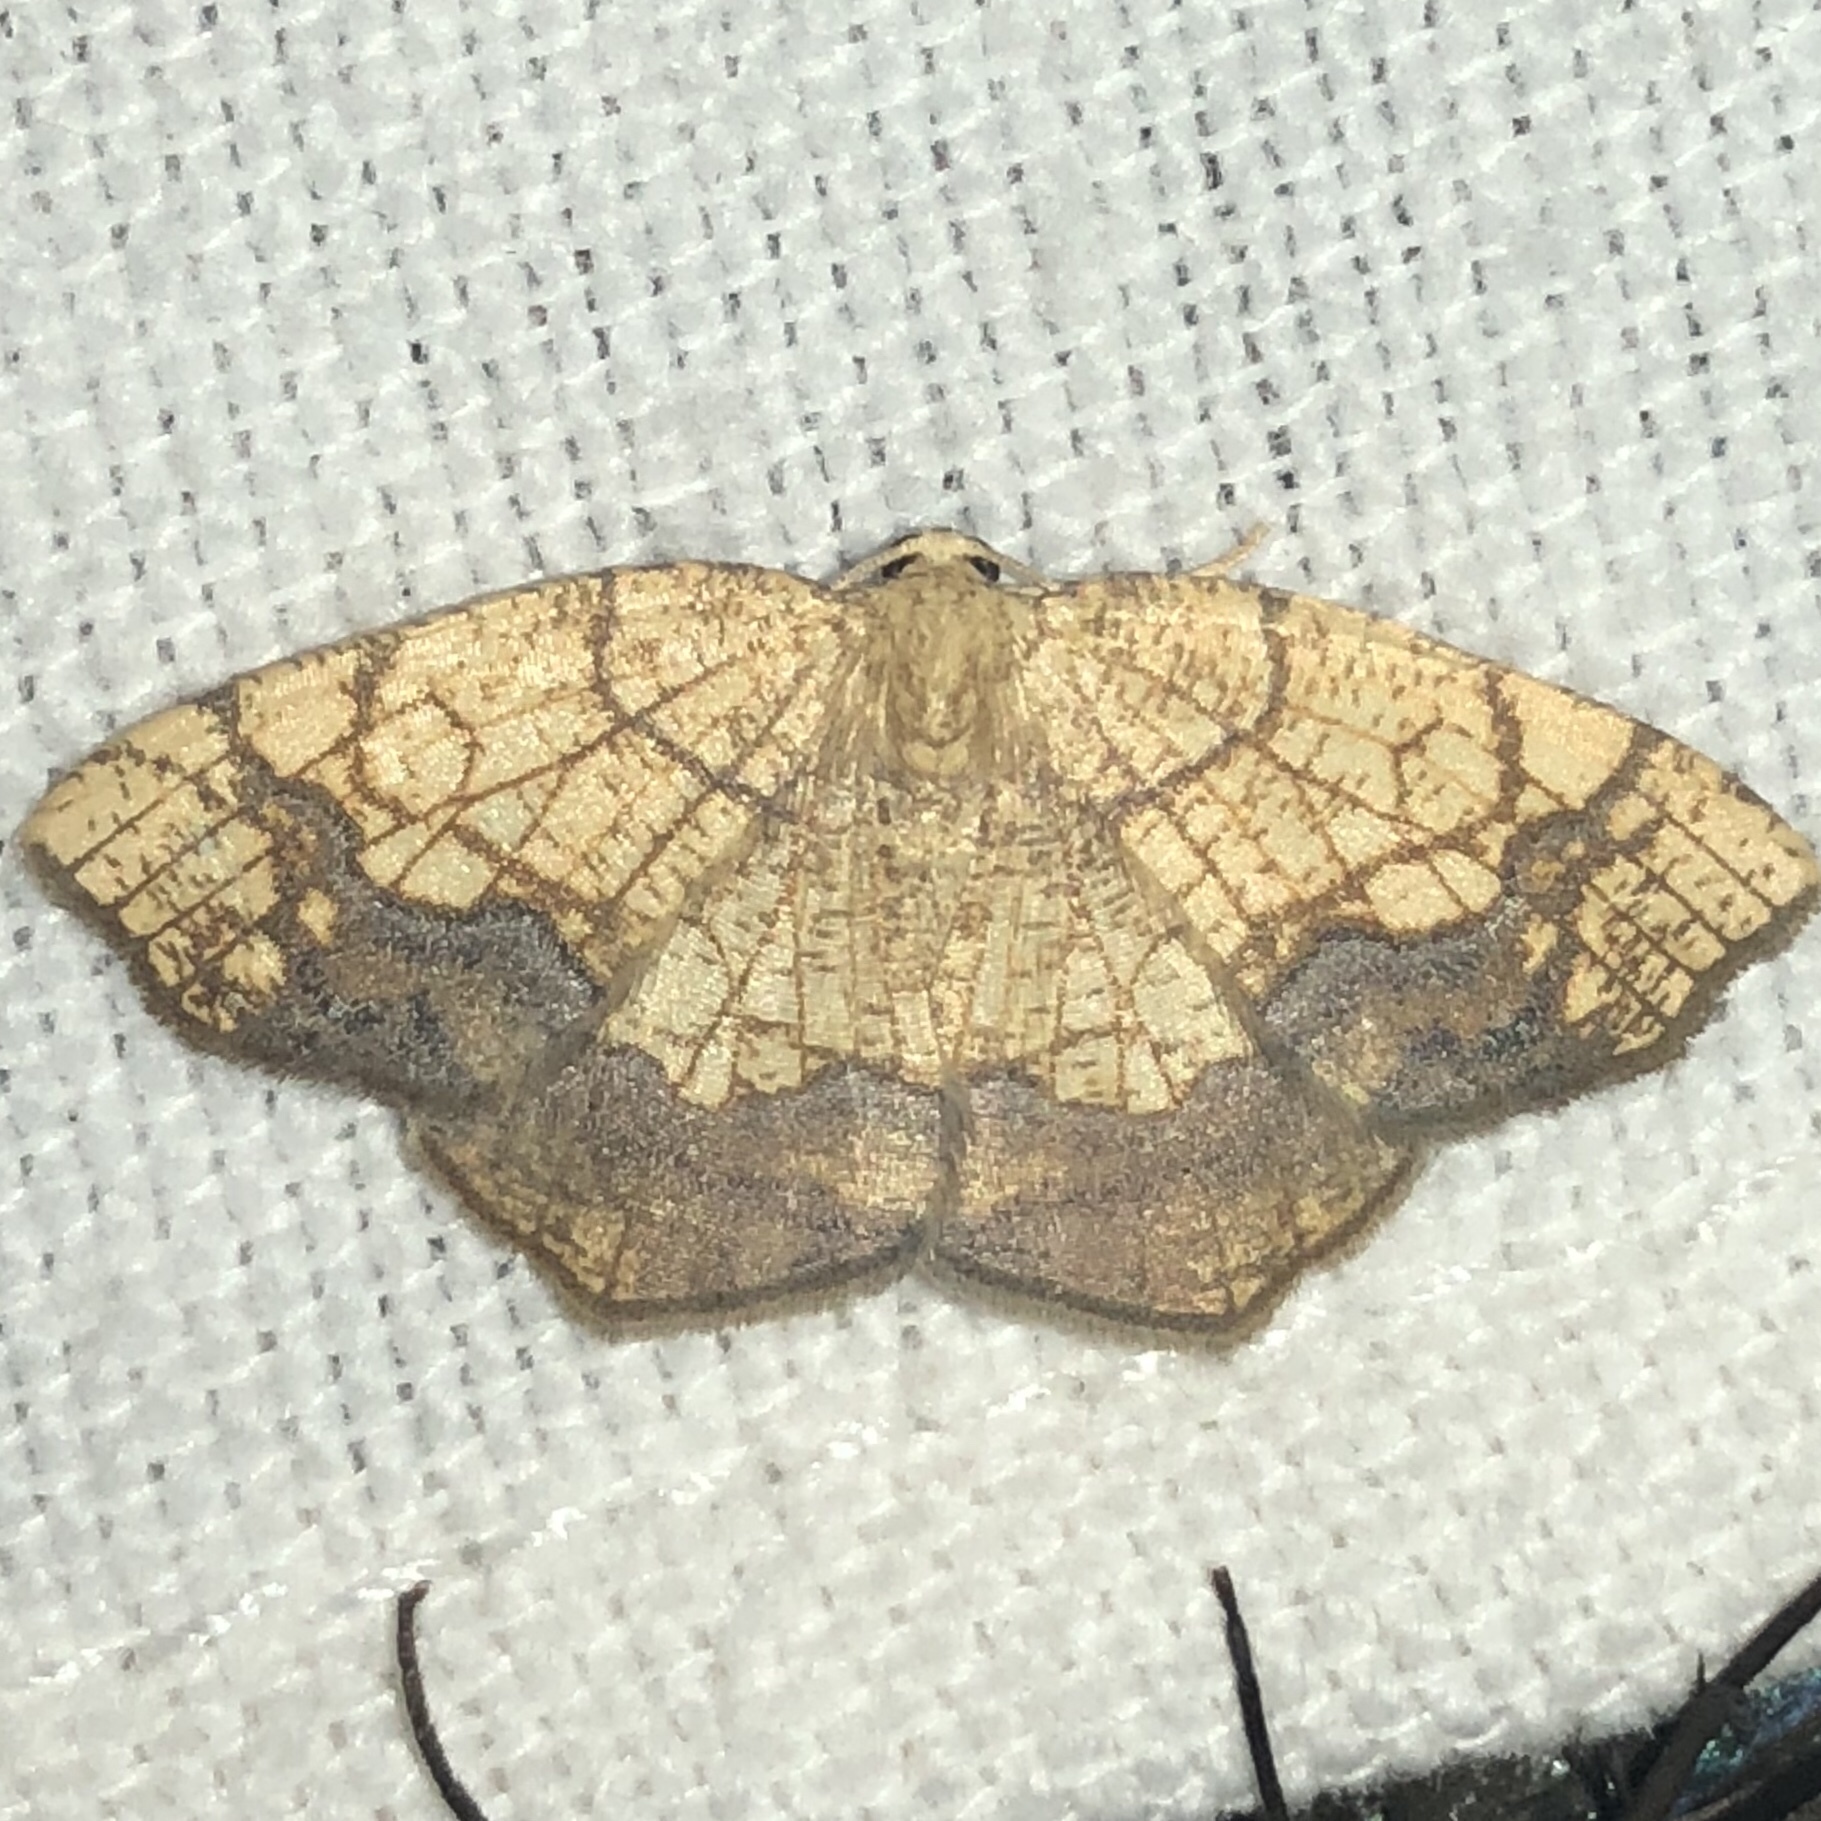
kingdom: Animalia
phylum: Arthropoda
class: Insecta
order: Lepidoptera
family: Geometridae
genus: Nematocampa
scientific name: Nematocampa resistaria
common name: Horned spanworm moth
